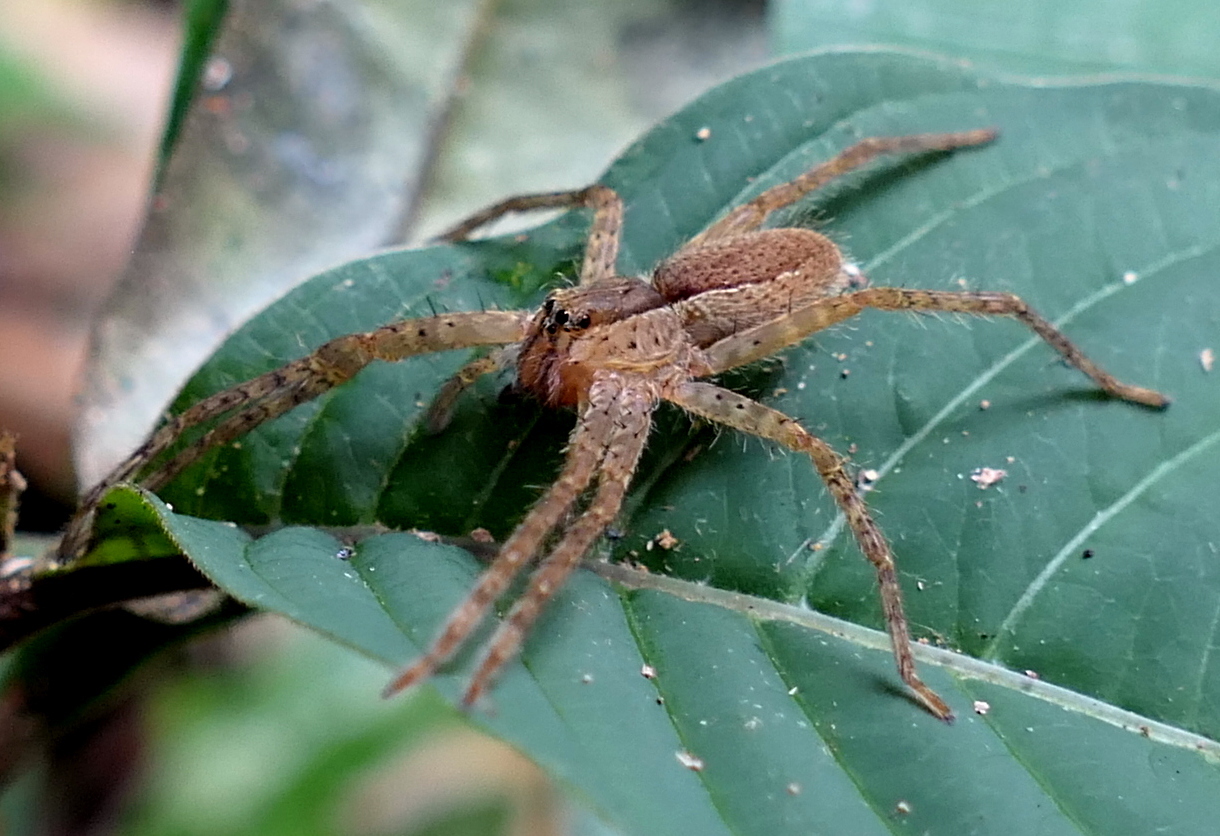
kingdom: Animalia
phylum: Arthropoda
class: Arachnida
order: Araneae
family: Trechaleidae
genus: Cupiennius
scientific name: Cupiennius bimaculatus
